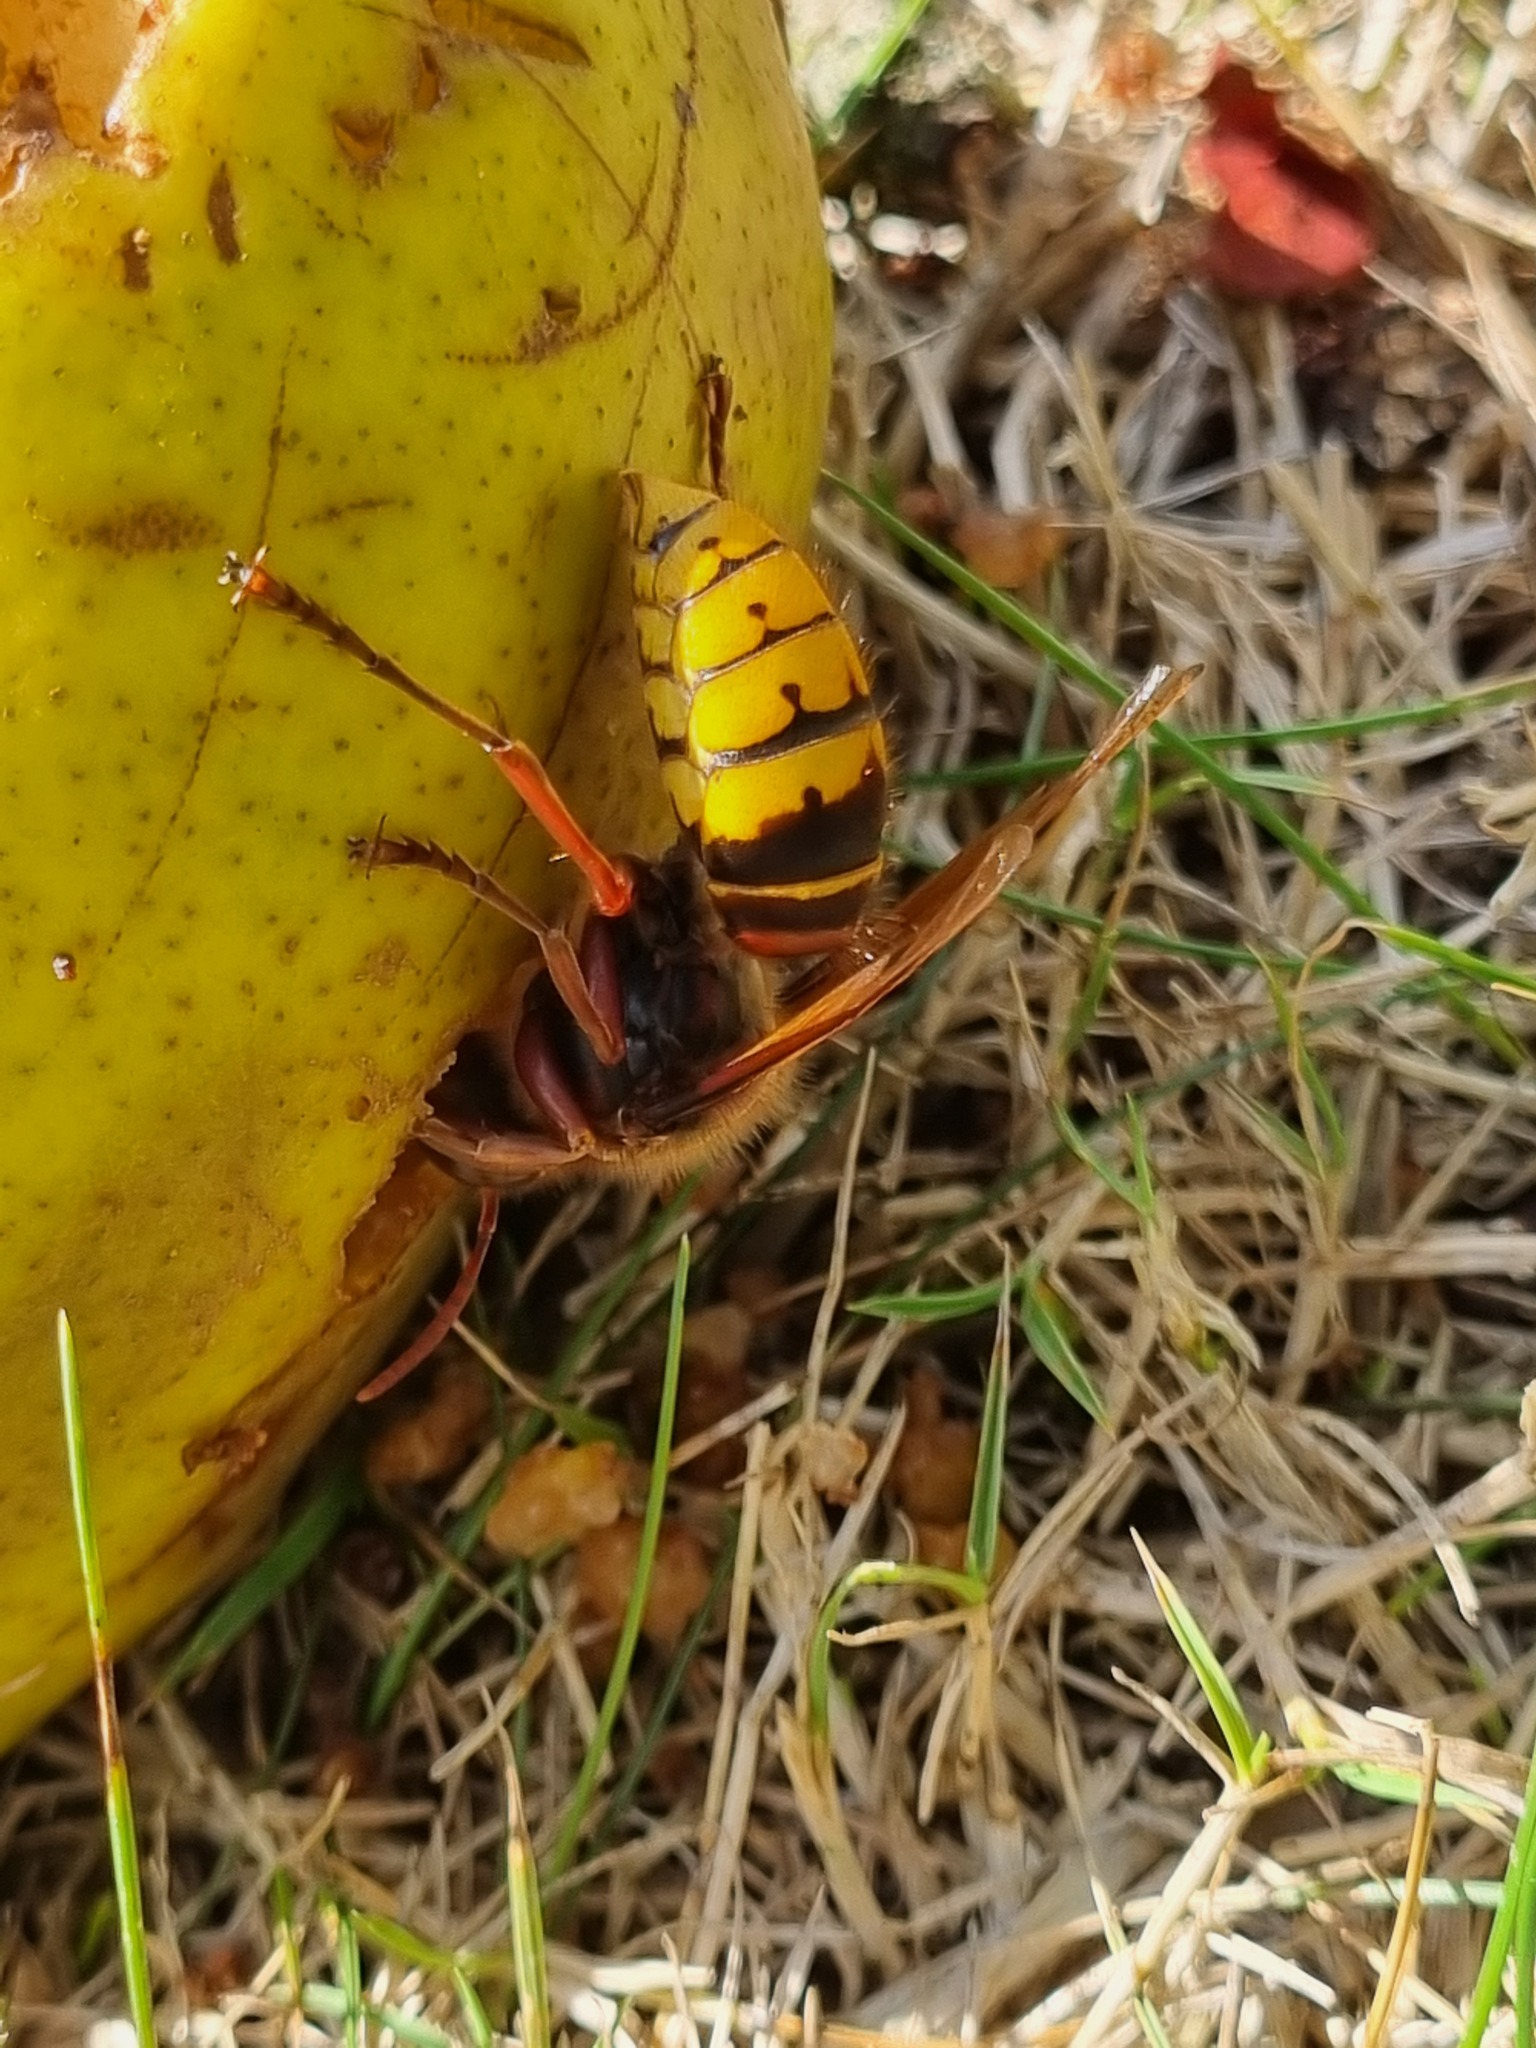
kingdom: Animalia
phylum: Arthropoda
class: Insecta
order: Hymenoptera
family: Vespidae
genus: Vespa
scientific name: Vespa crabro
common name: Hornet
